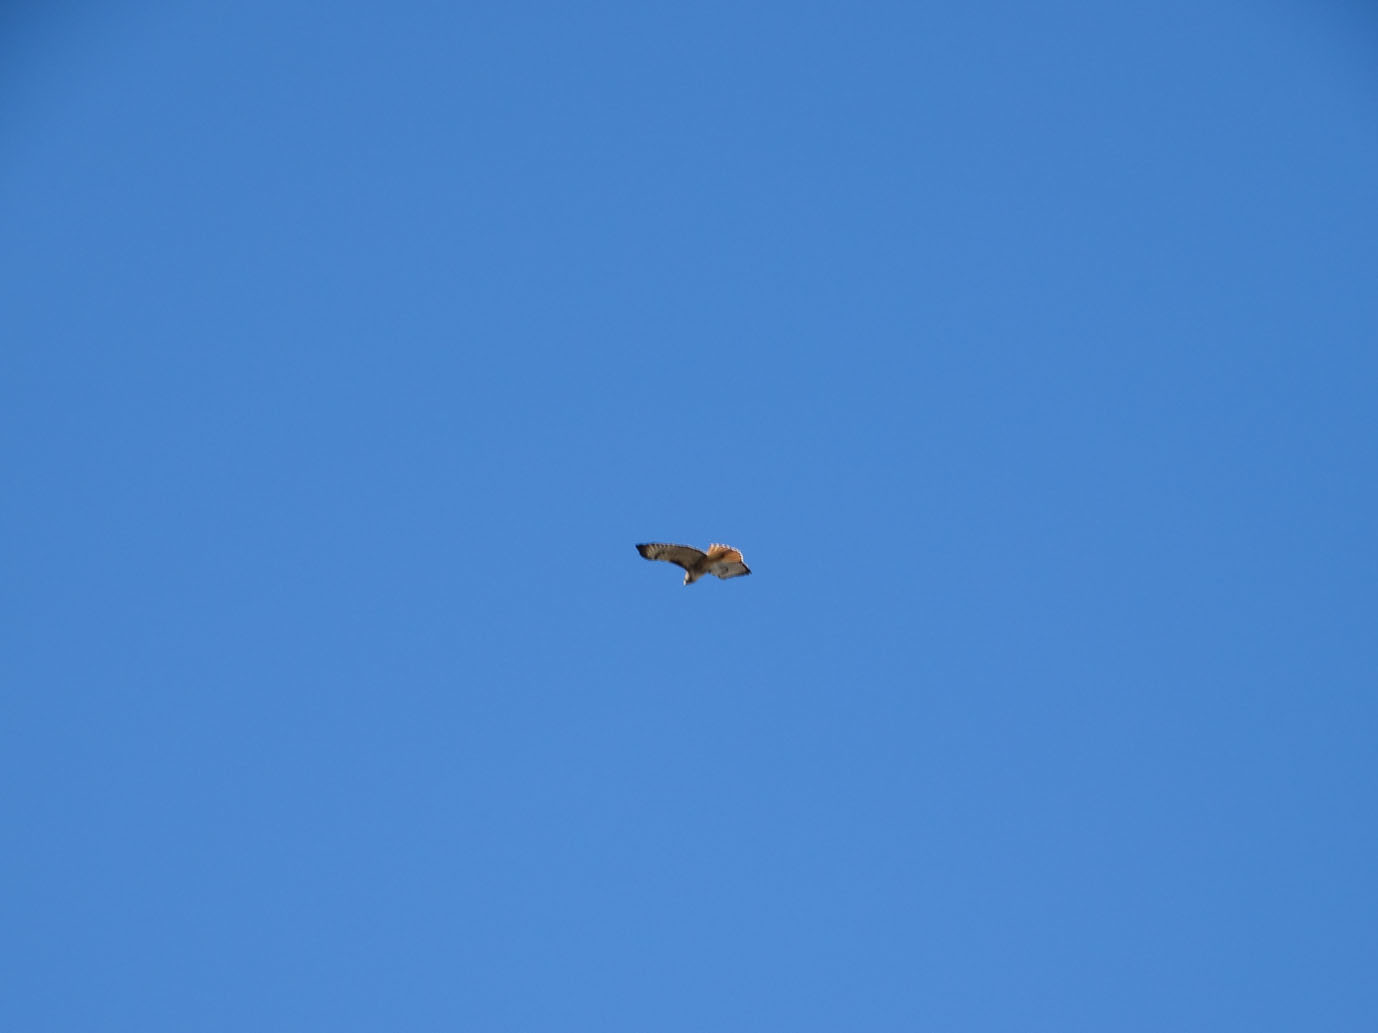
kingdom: Animalia
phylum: Chordata
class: Aves
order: Accipitriformes
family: Accipitridae
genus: Buteo
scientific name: Buteo jamaicensis
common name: Red-tailed hawk
